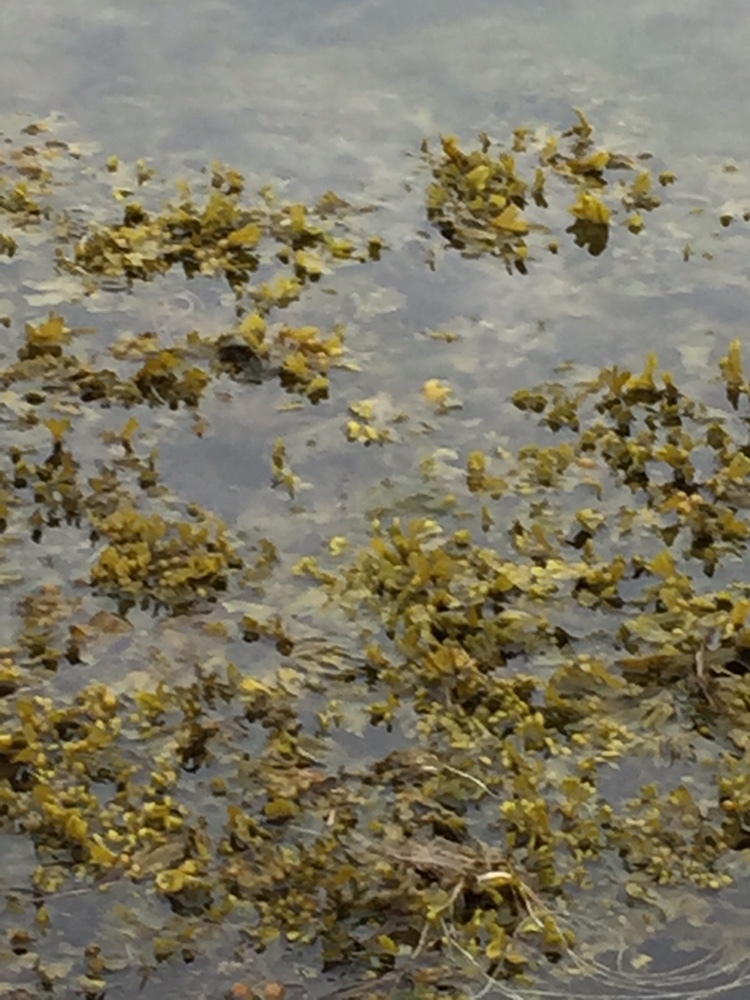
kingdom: Chromista
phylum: Ochrophyta
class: Phaeophyceae
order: Fucales
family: Fucaceae
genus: Fucus
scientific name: Fucus vesiculosus
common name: Bladder wrack
